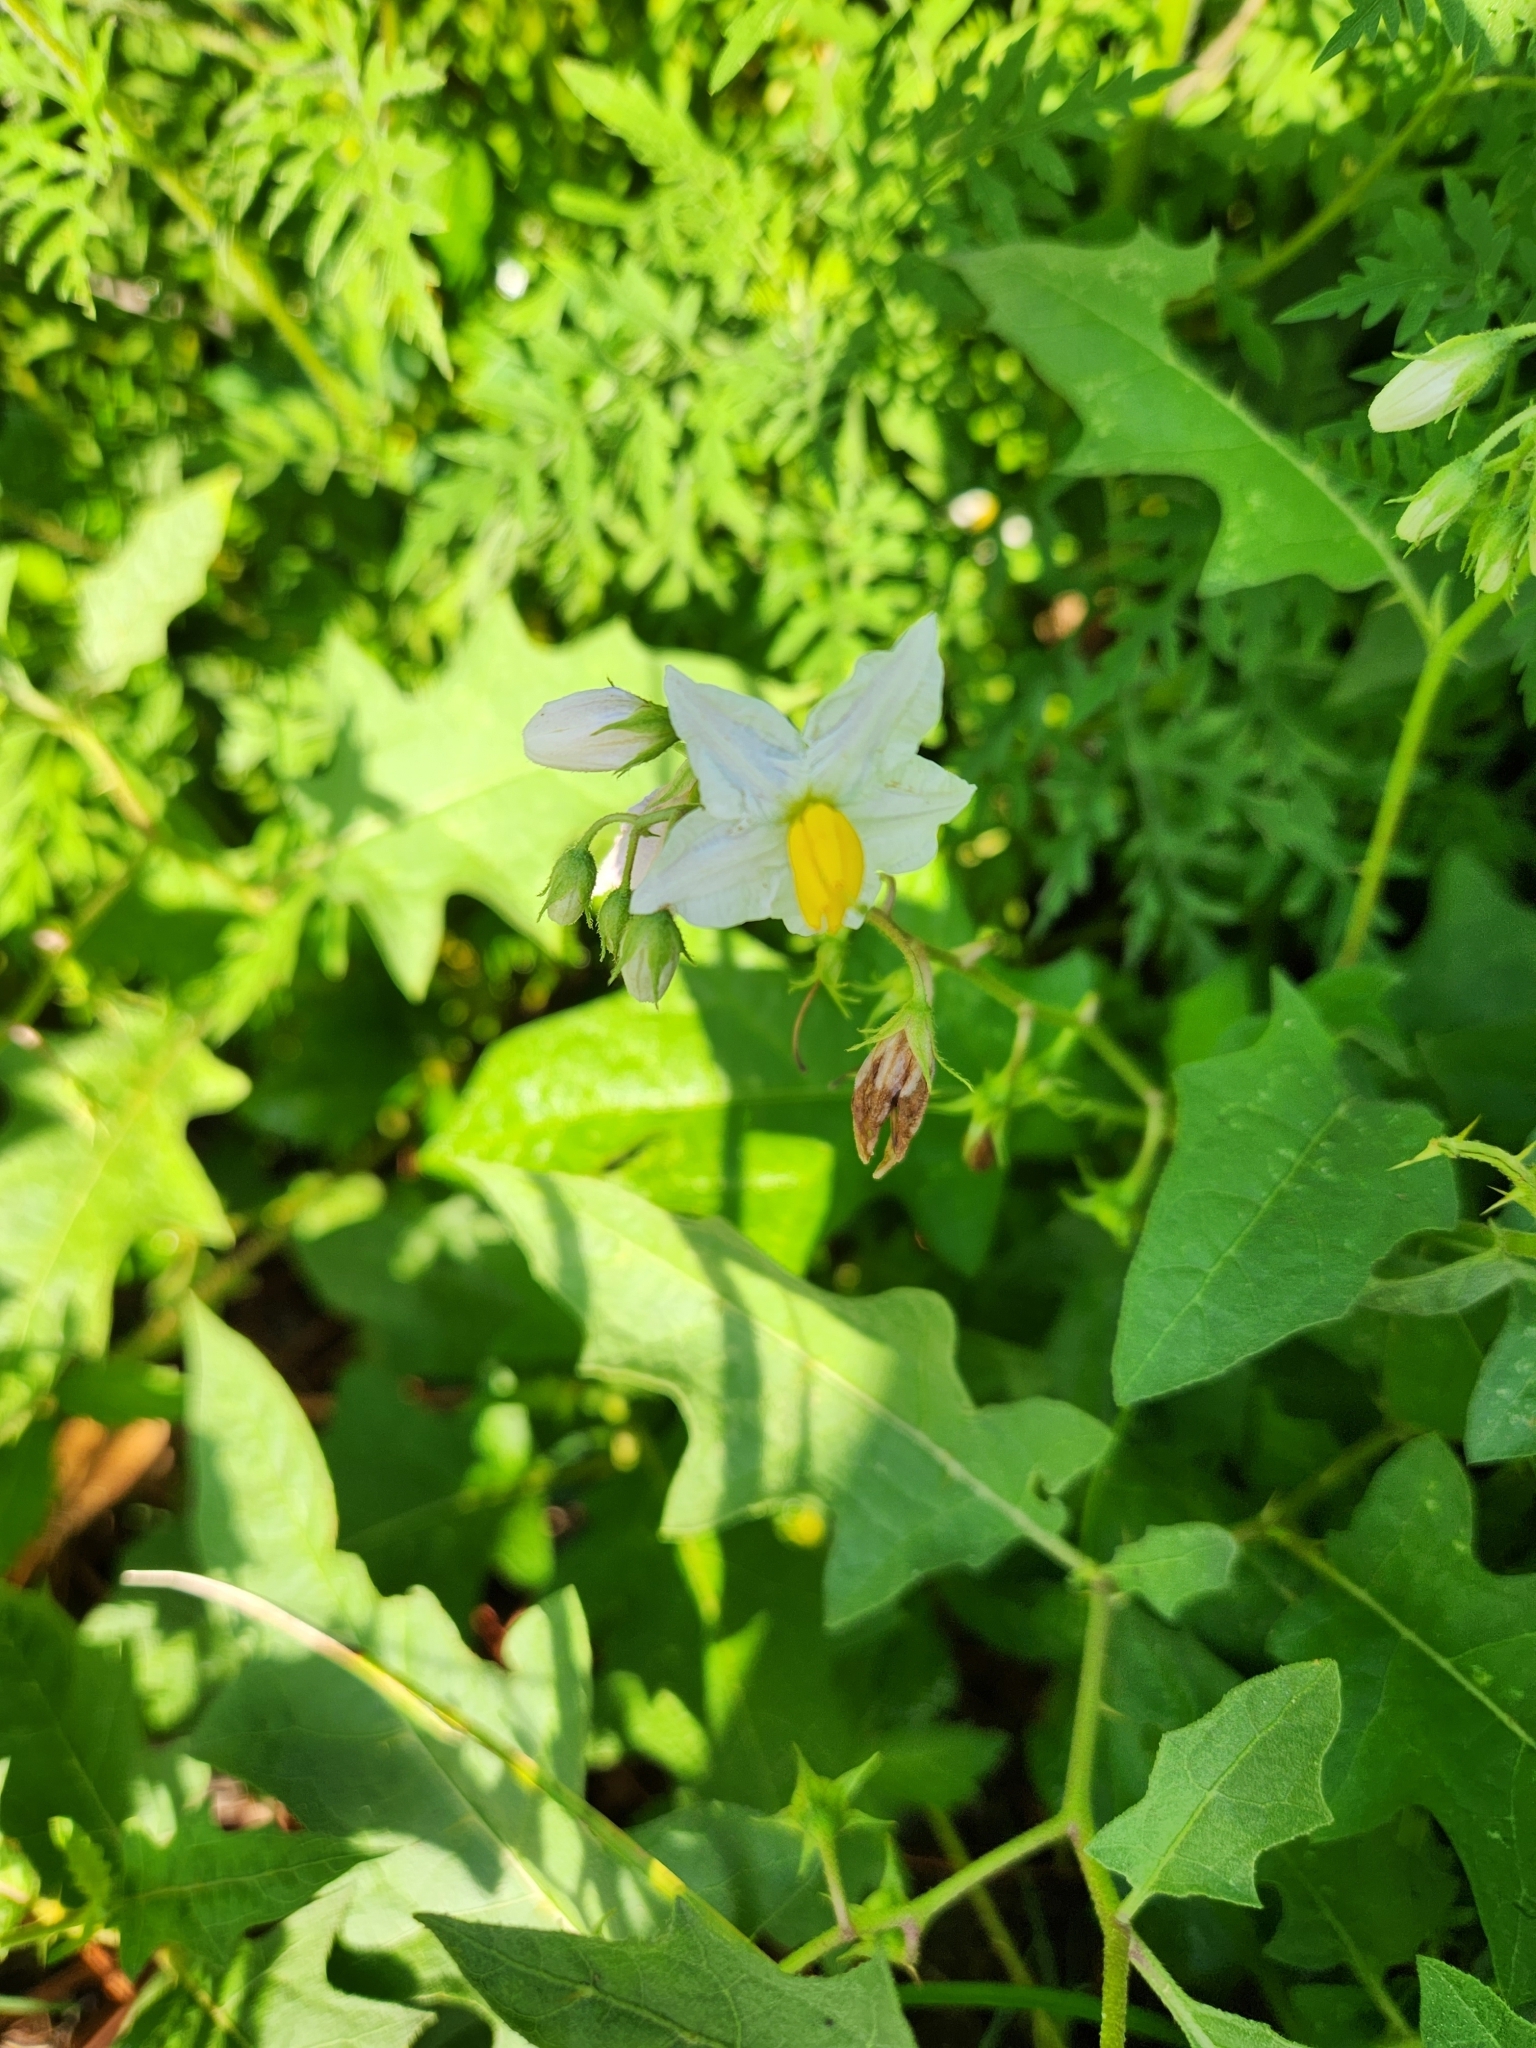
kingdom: Plantae
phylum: Tracheophyta
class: Magnoliopsida
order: Solanales
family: Solanaceae
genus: Solanum
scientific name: Solanum carolinense
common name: Horse-nettle
